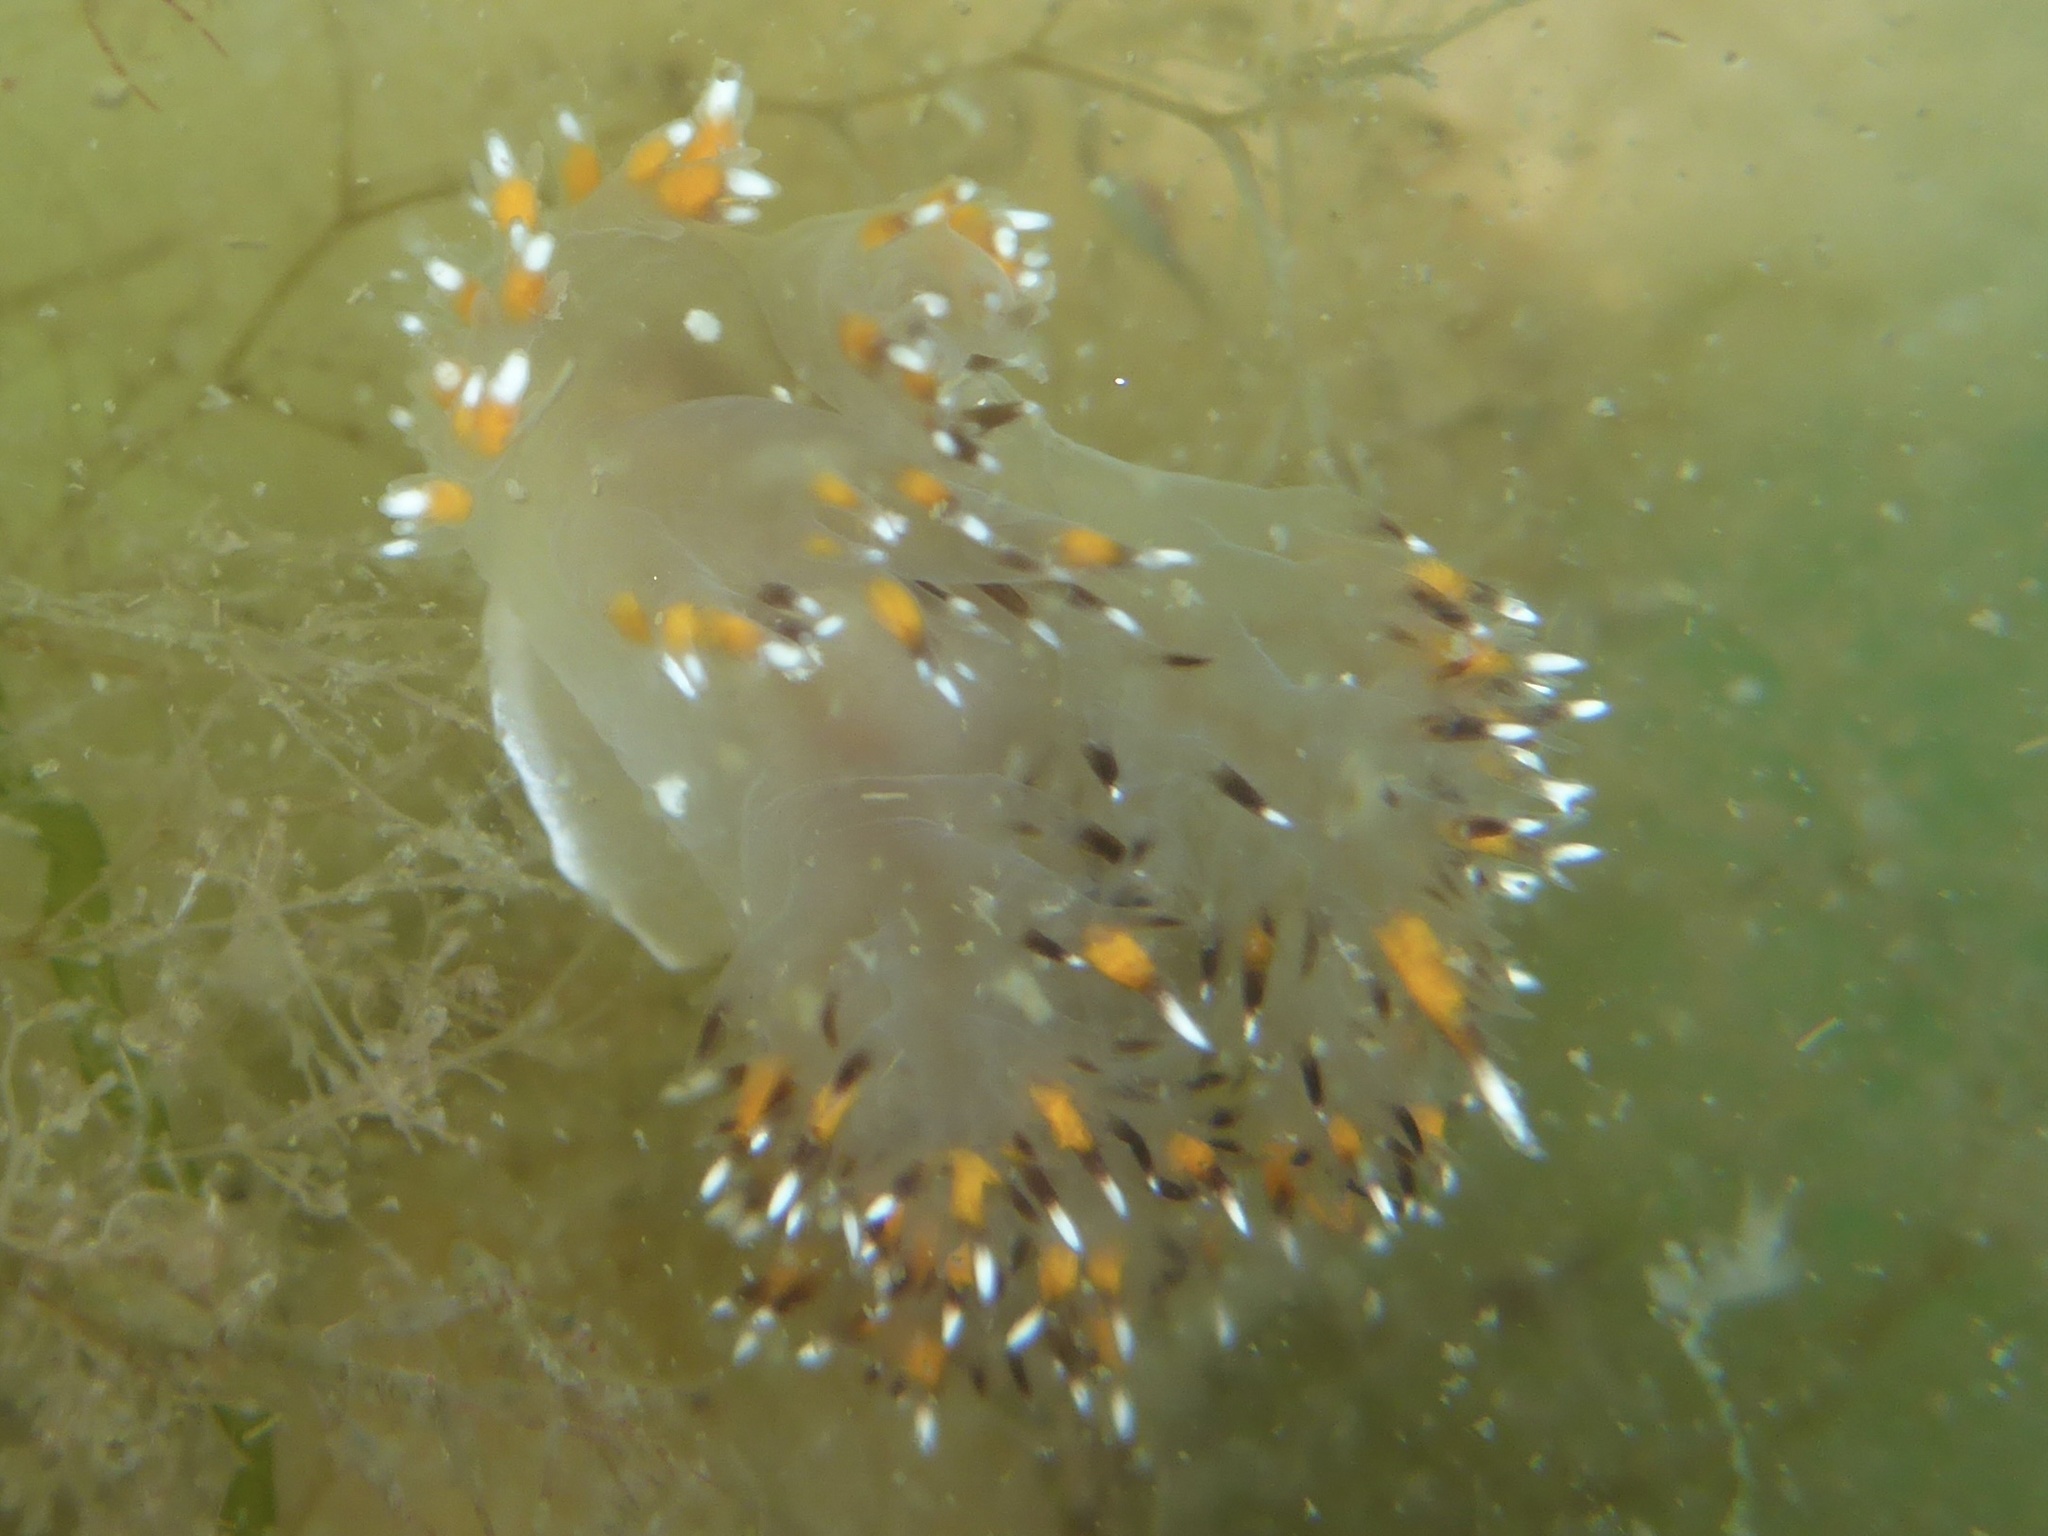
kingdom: Animalia
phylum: Mollusca
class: Gastropoda
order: Nudibranchia
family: Dendronotidae
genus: Dendronotus
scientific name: Dendronotus iris
